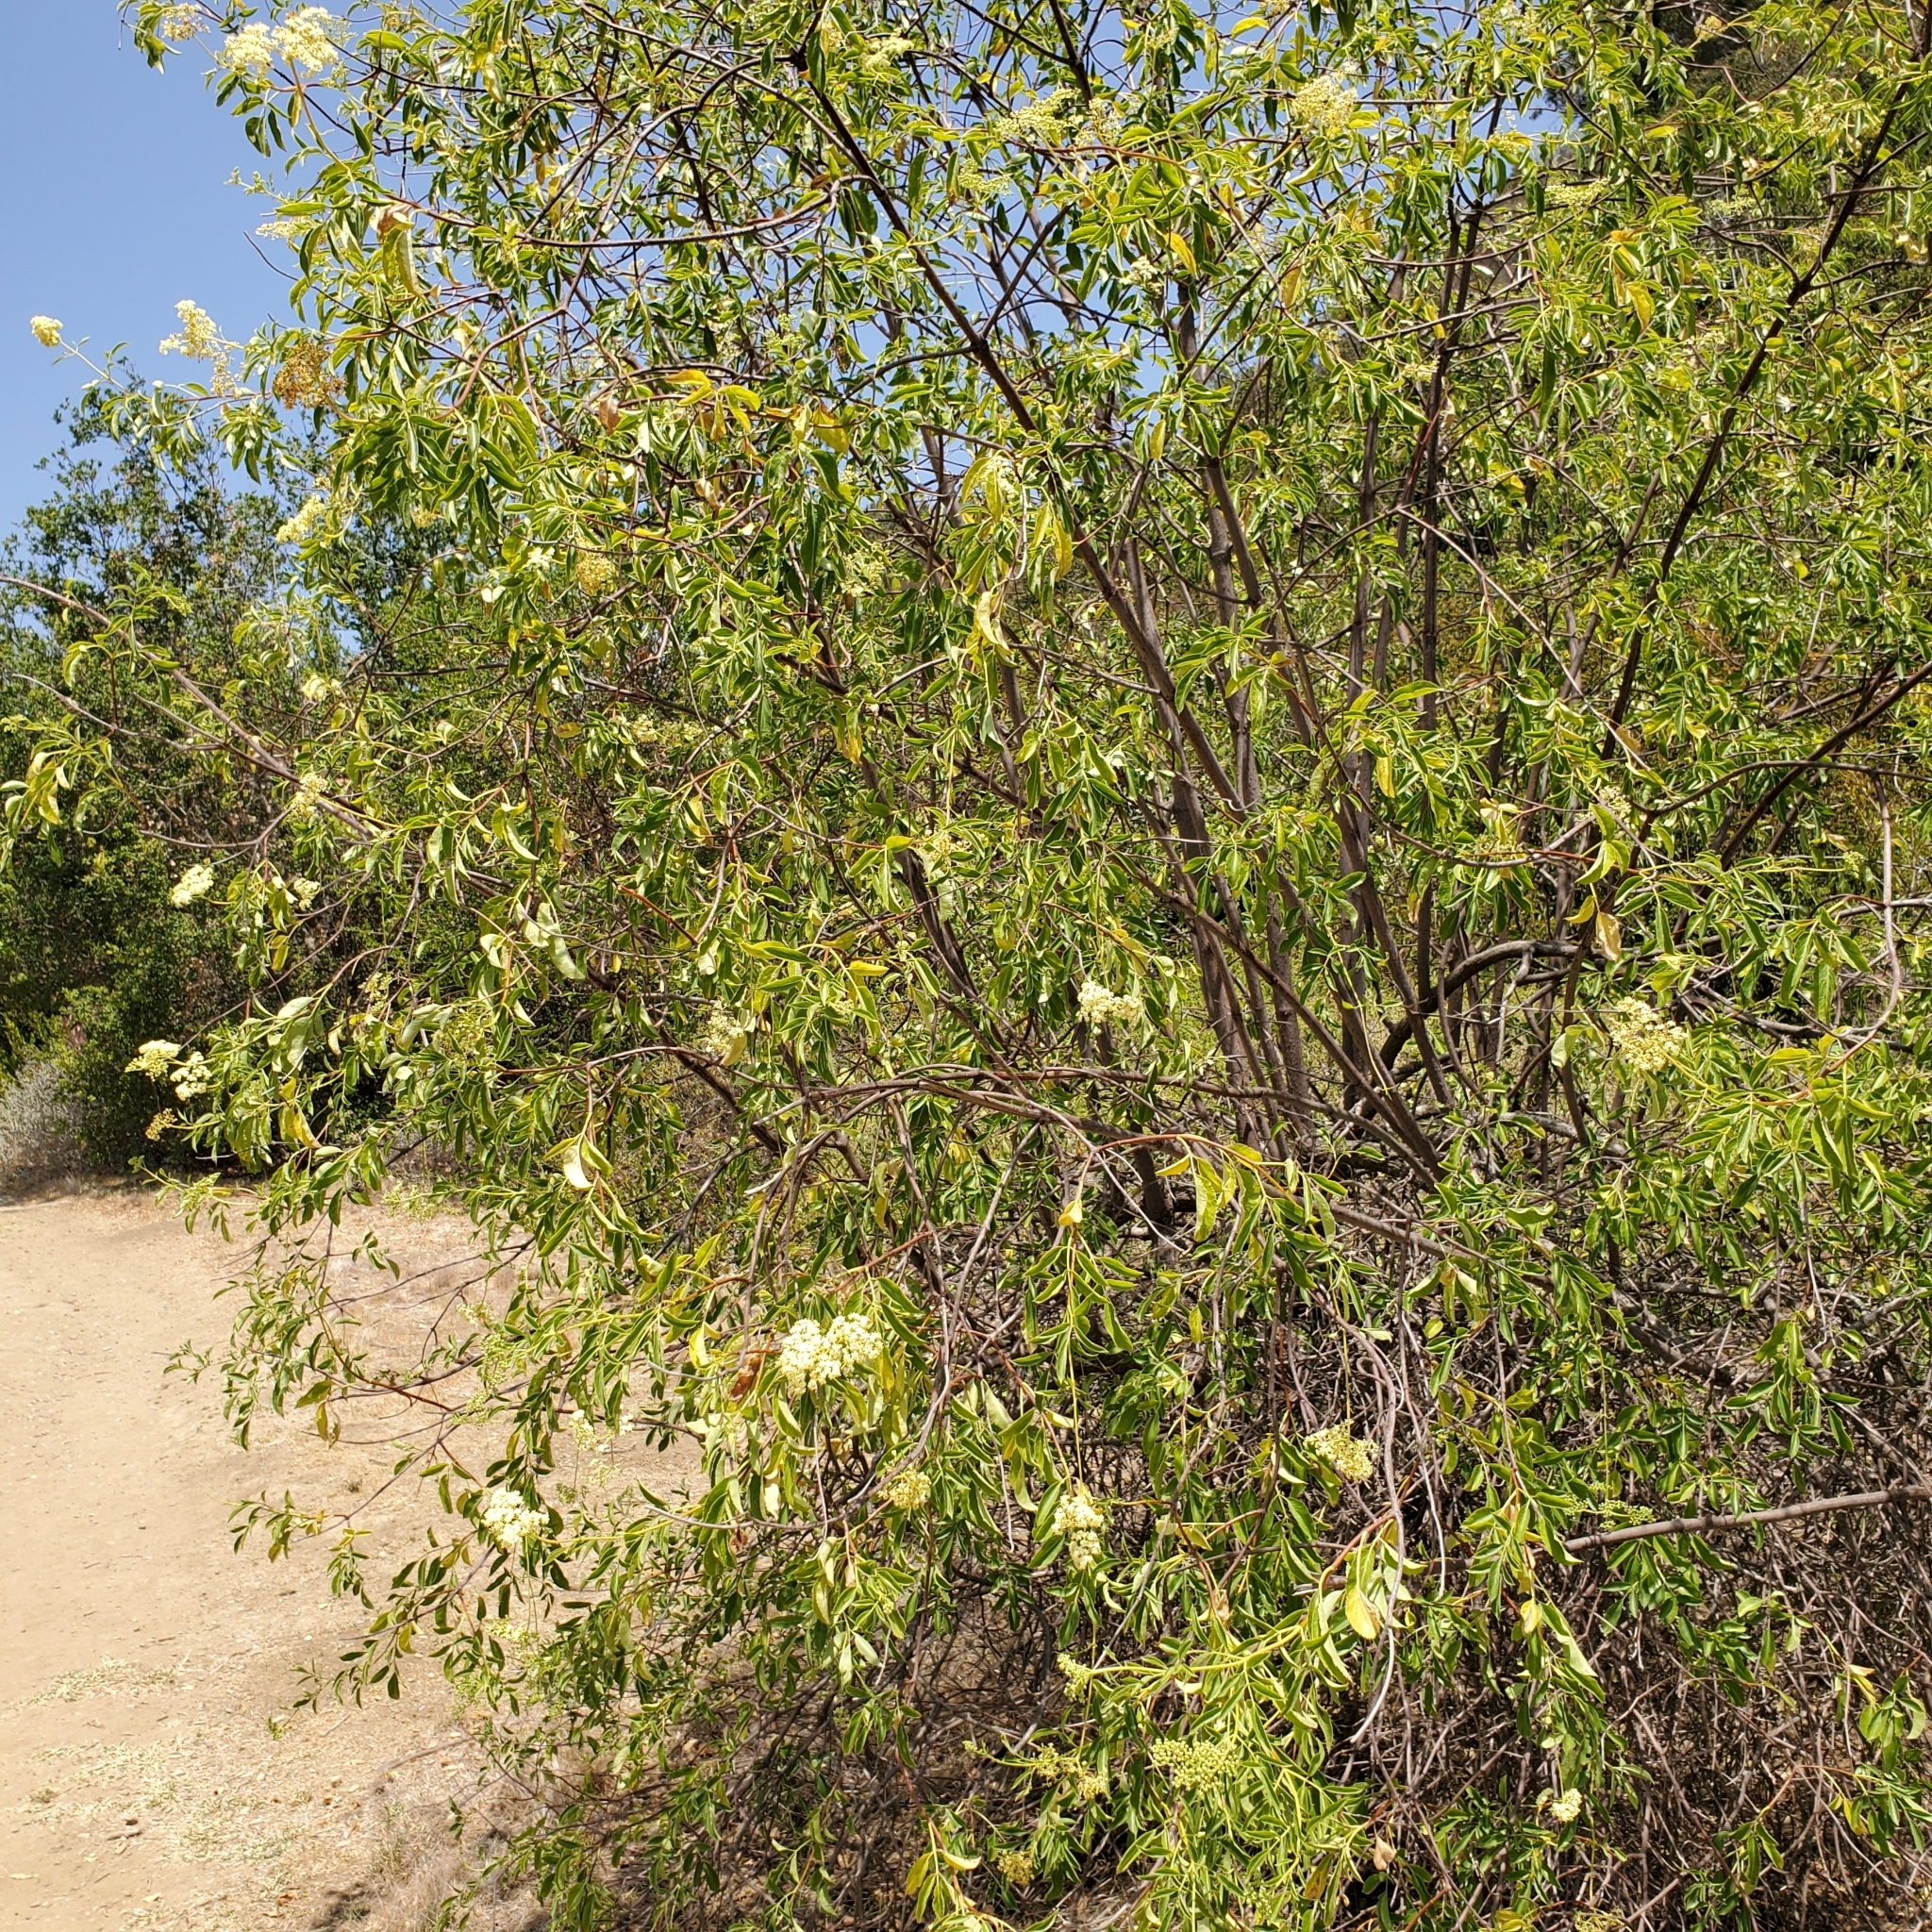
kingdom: Plantae
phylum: Tracheophyta
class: Magnoliopsida
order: Dipsacales
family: Viburnaceae
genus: Sambucus
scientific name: Sambucus cerulea
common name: Blue elder
